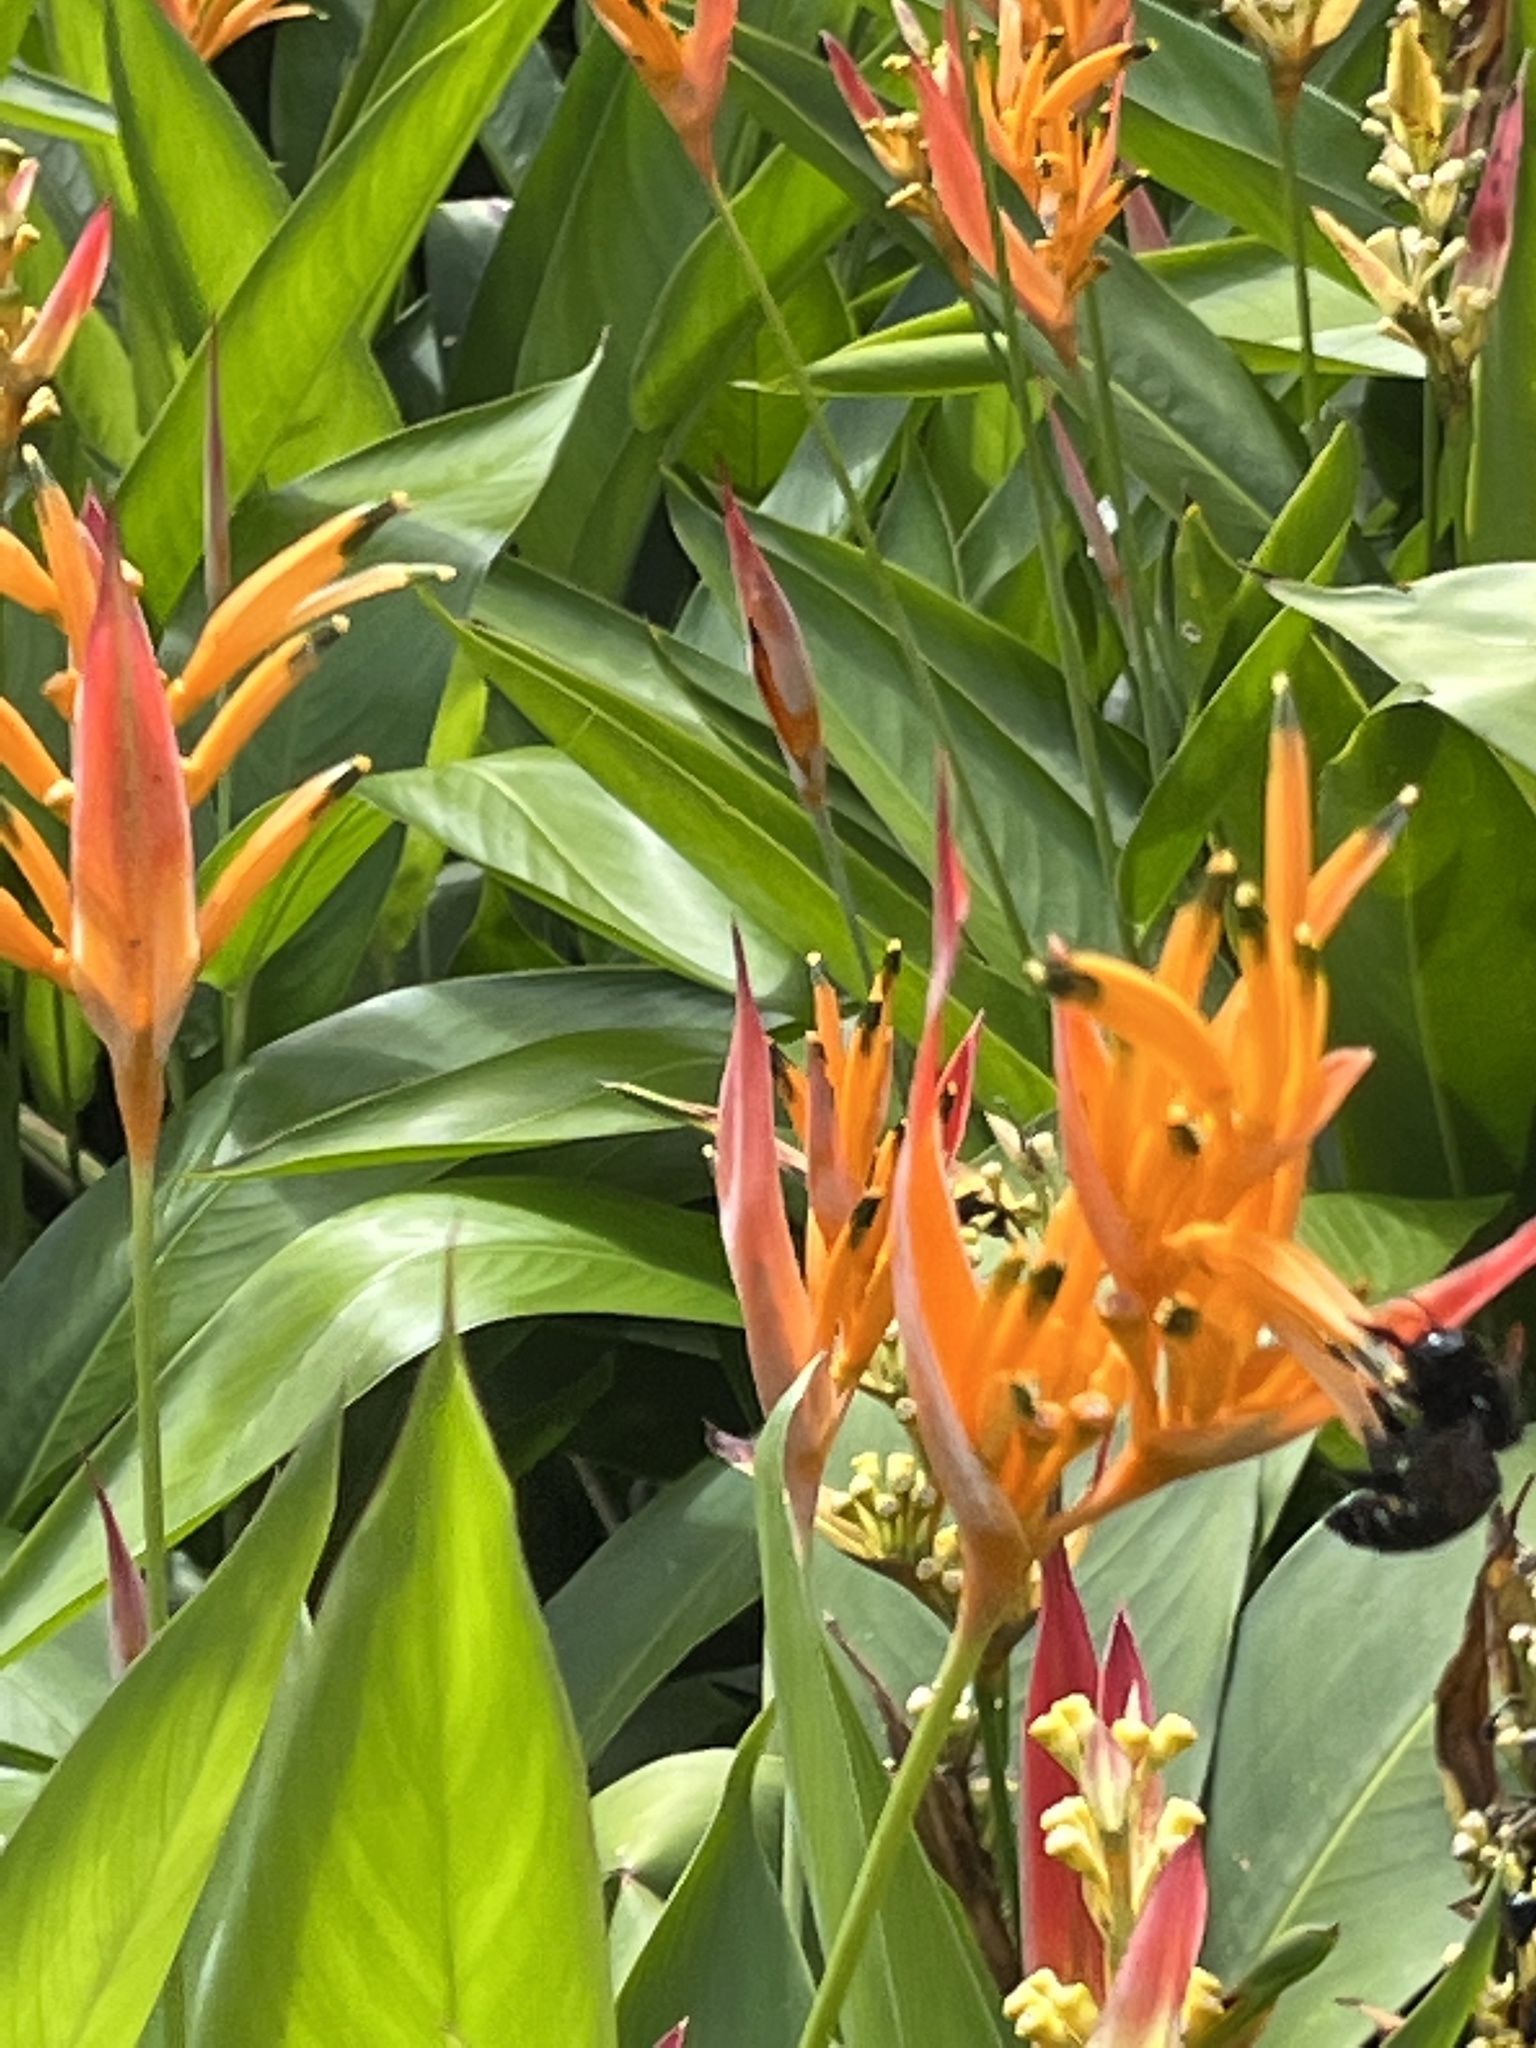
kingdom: Animalia
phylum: Arthropoda
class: Insecta
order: Hymenoptera
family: Apidae
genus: Xylocopa
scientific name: Xylocopa mordax
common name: Antillean carpenter bee
